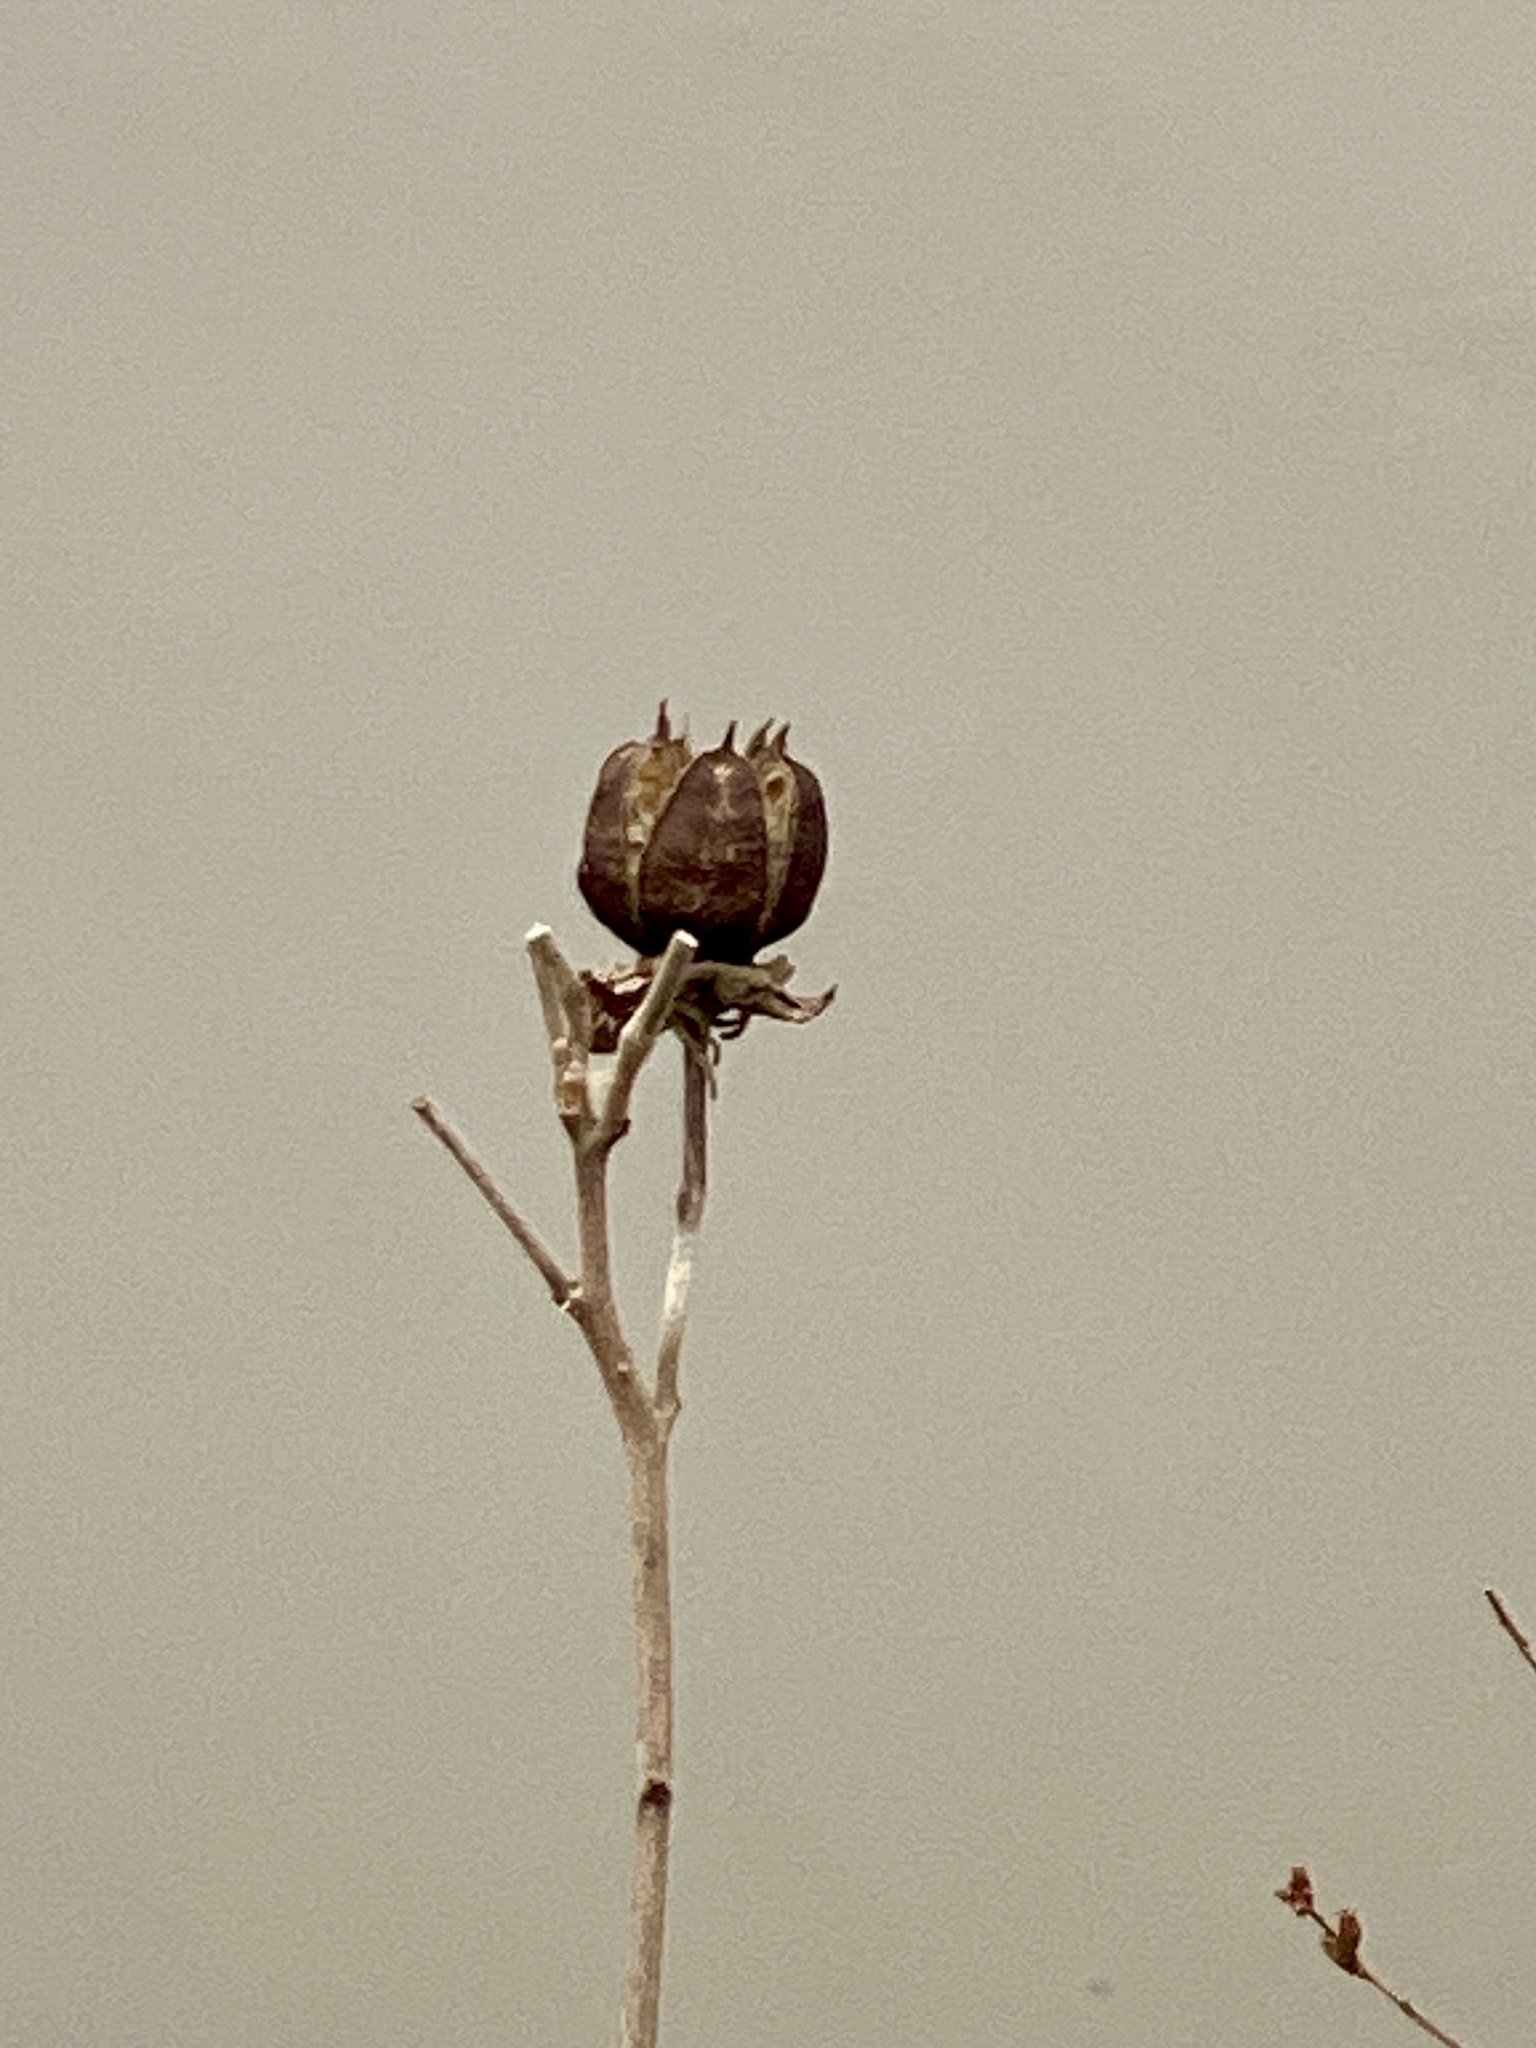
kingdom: Plantae
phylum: Tracheophyta
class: Magnoliopsida
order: Malvales
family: Malvaceae
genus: Hibiscus
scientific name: Hibiscus moscheutos
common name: Common rose-mallow
